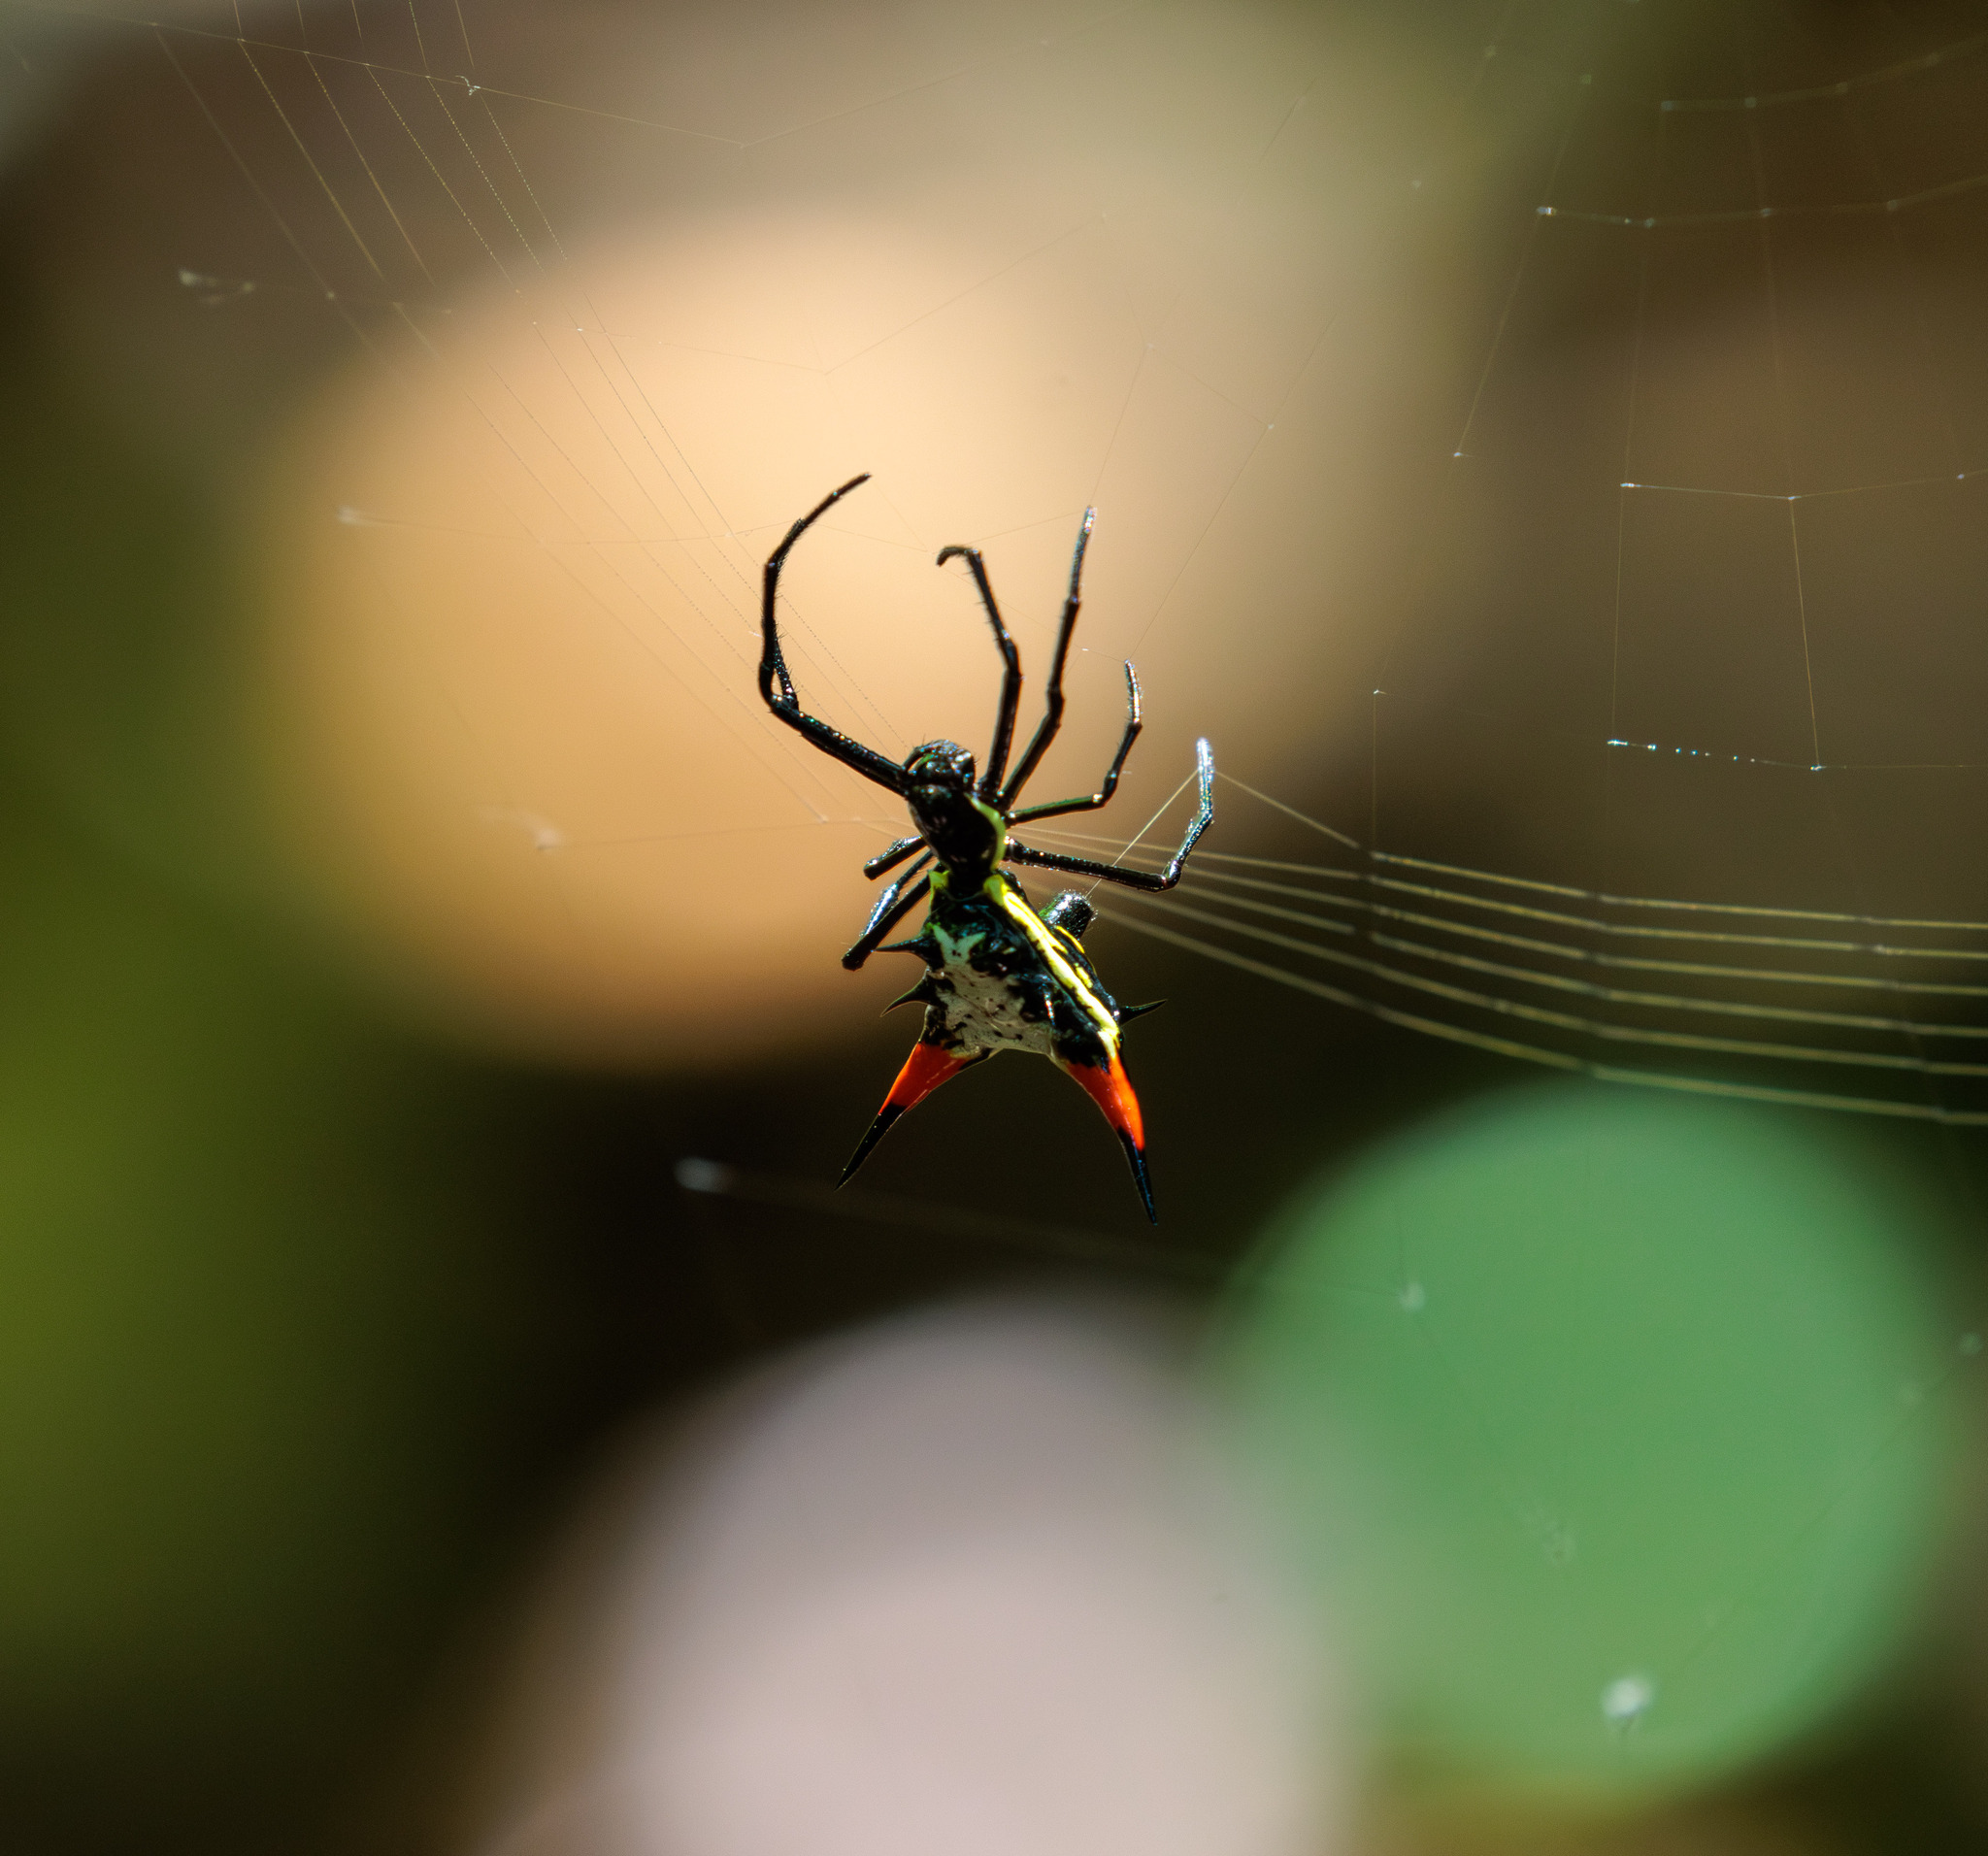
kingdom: Animalia
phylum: Arthropoda
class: Arachnida
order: Araneae
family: Araneidae
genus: Micrathena
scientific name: Micrathena schreibersi
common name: Orb weavers
